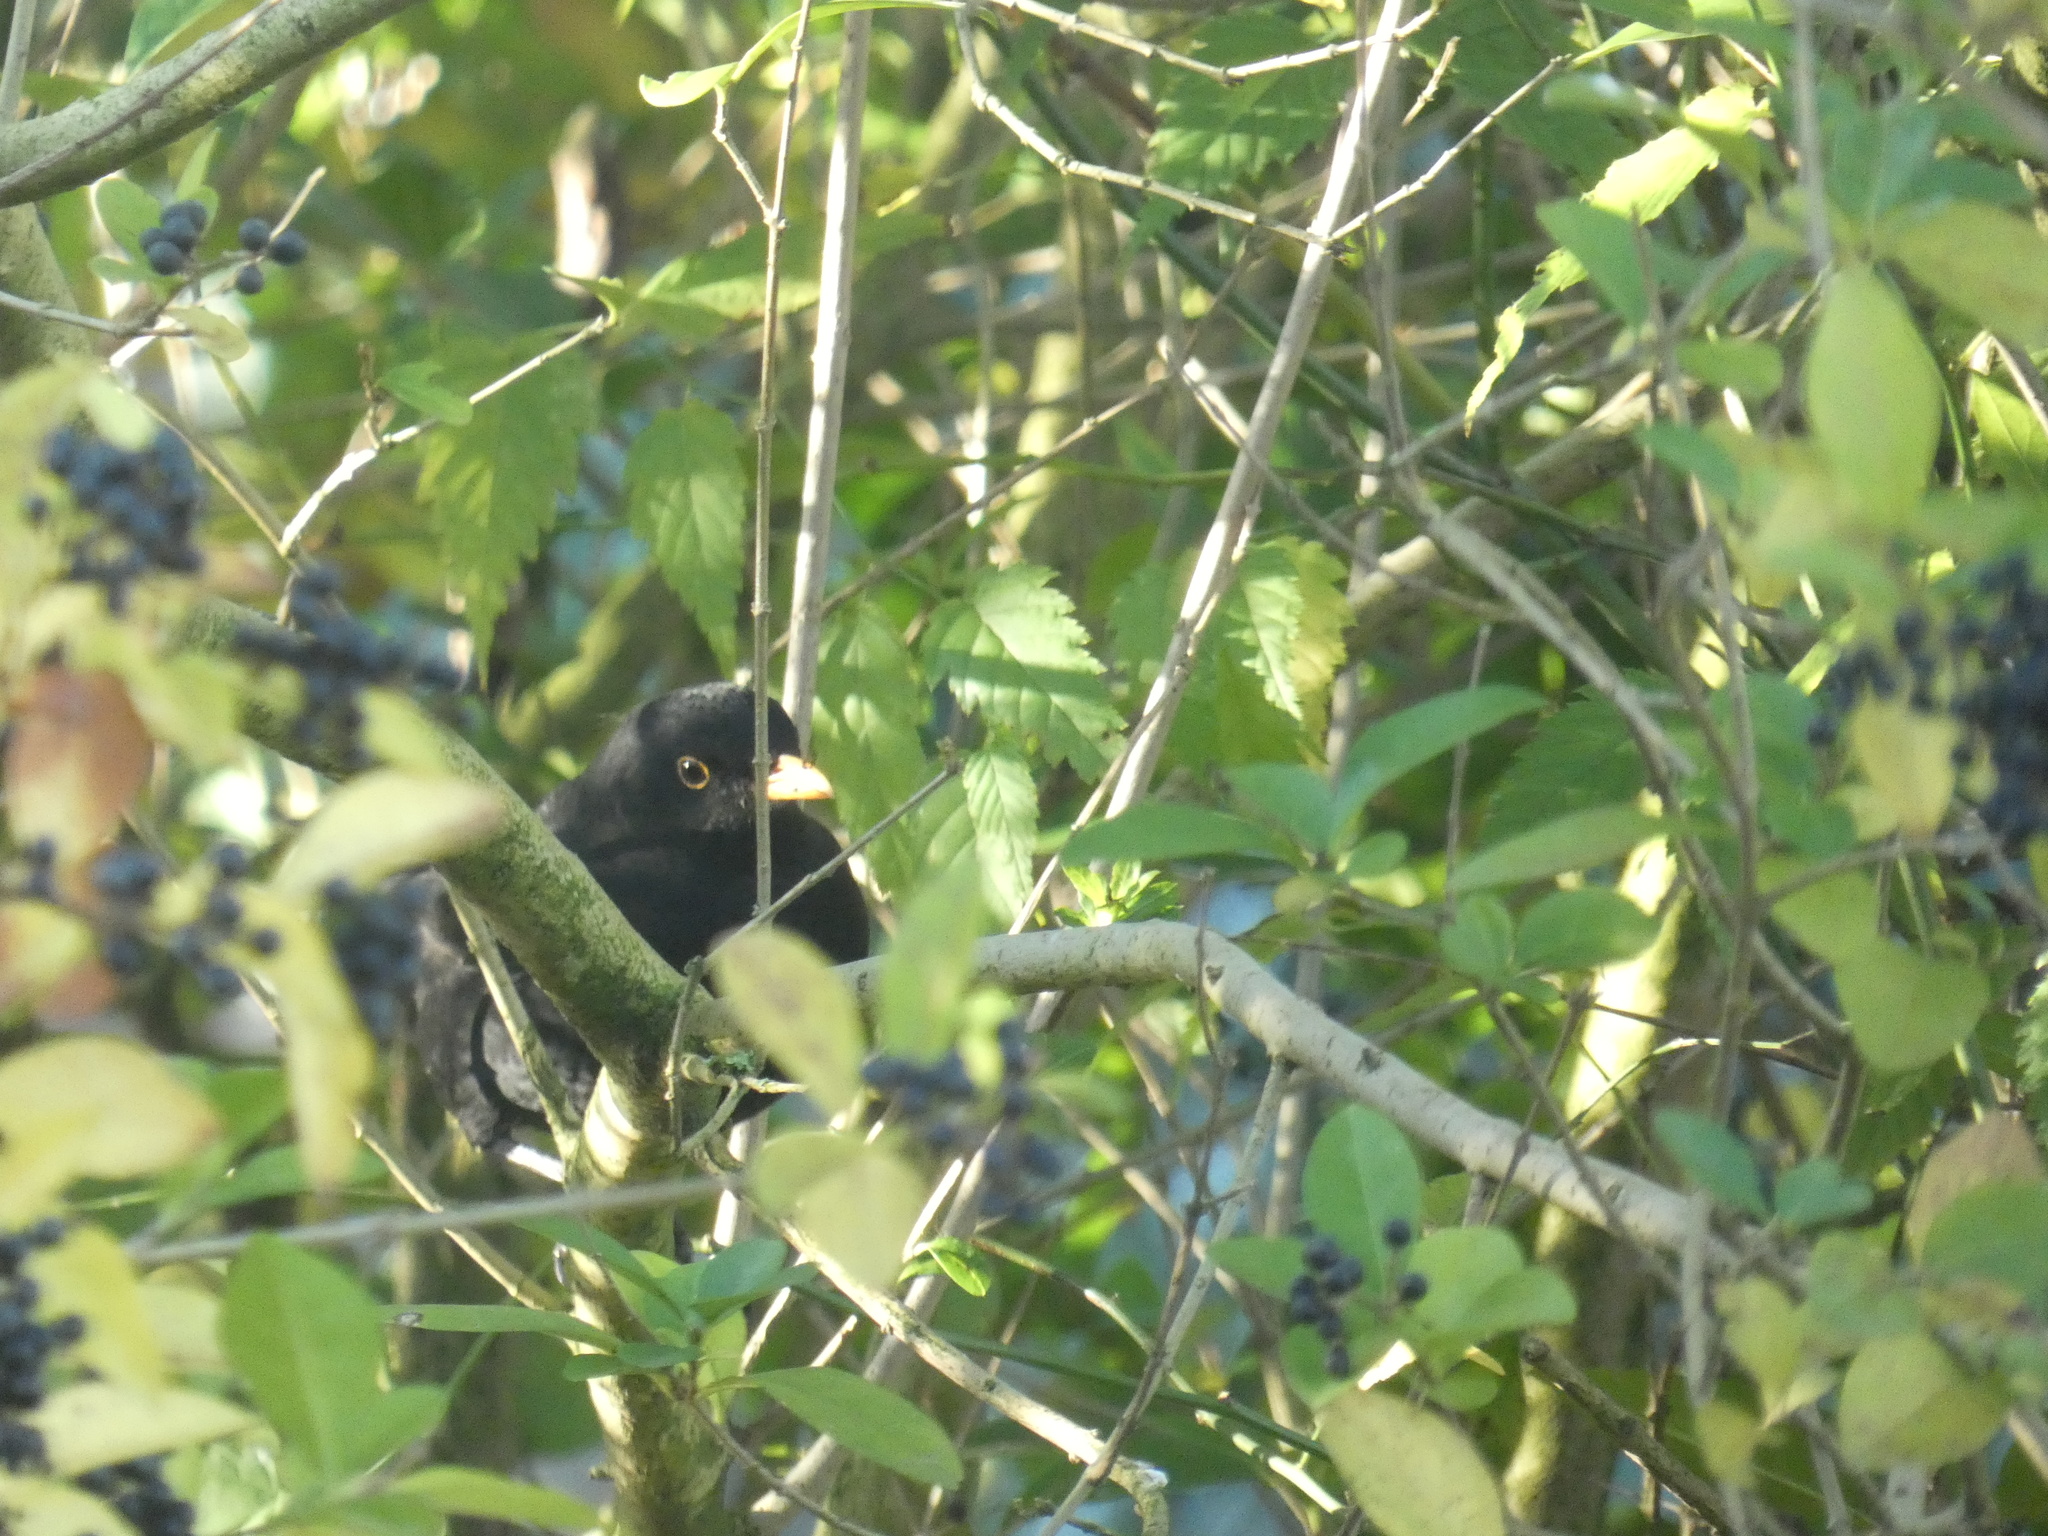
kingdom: Animalia
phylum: Chordata
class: Aves
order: Passeriformes
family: Turdidae
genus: Turdus
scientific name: Turdus merula
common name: Common blackbird
